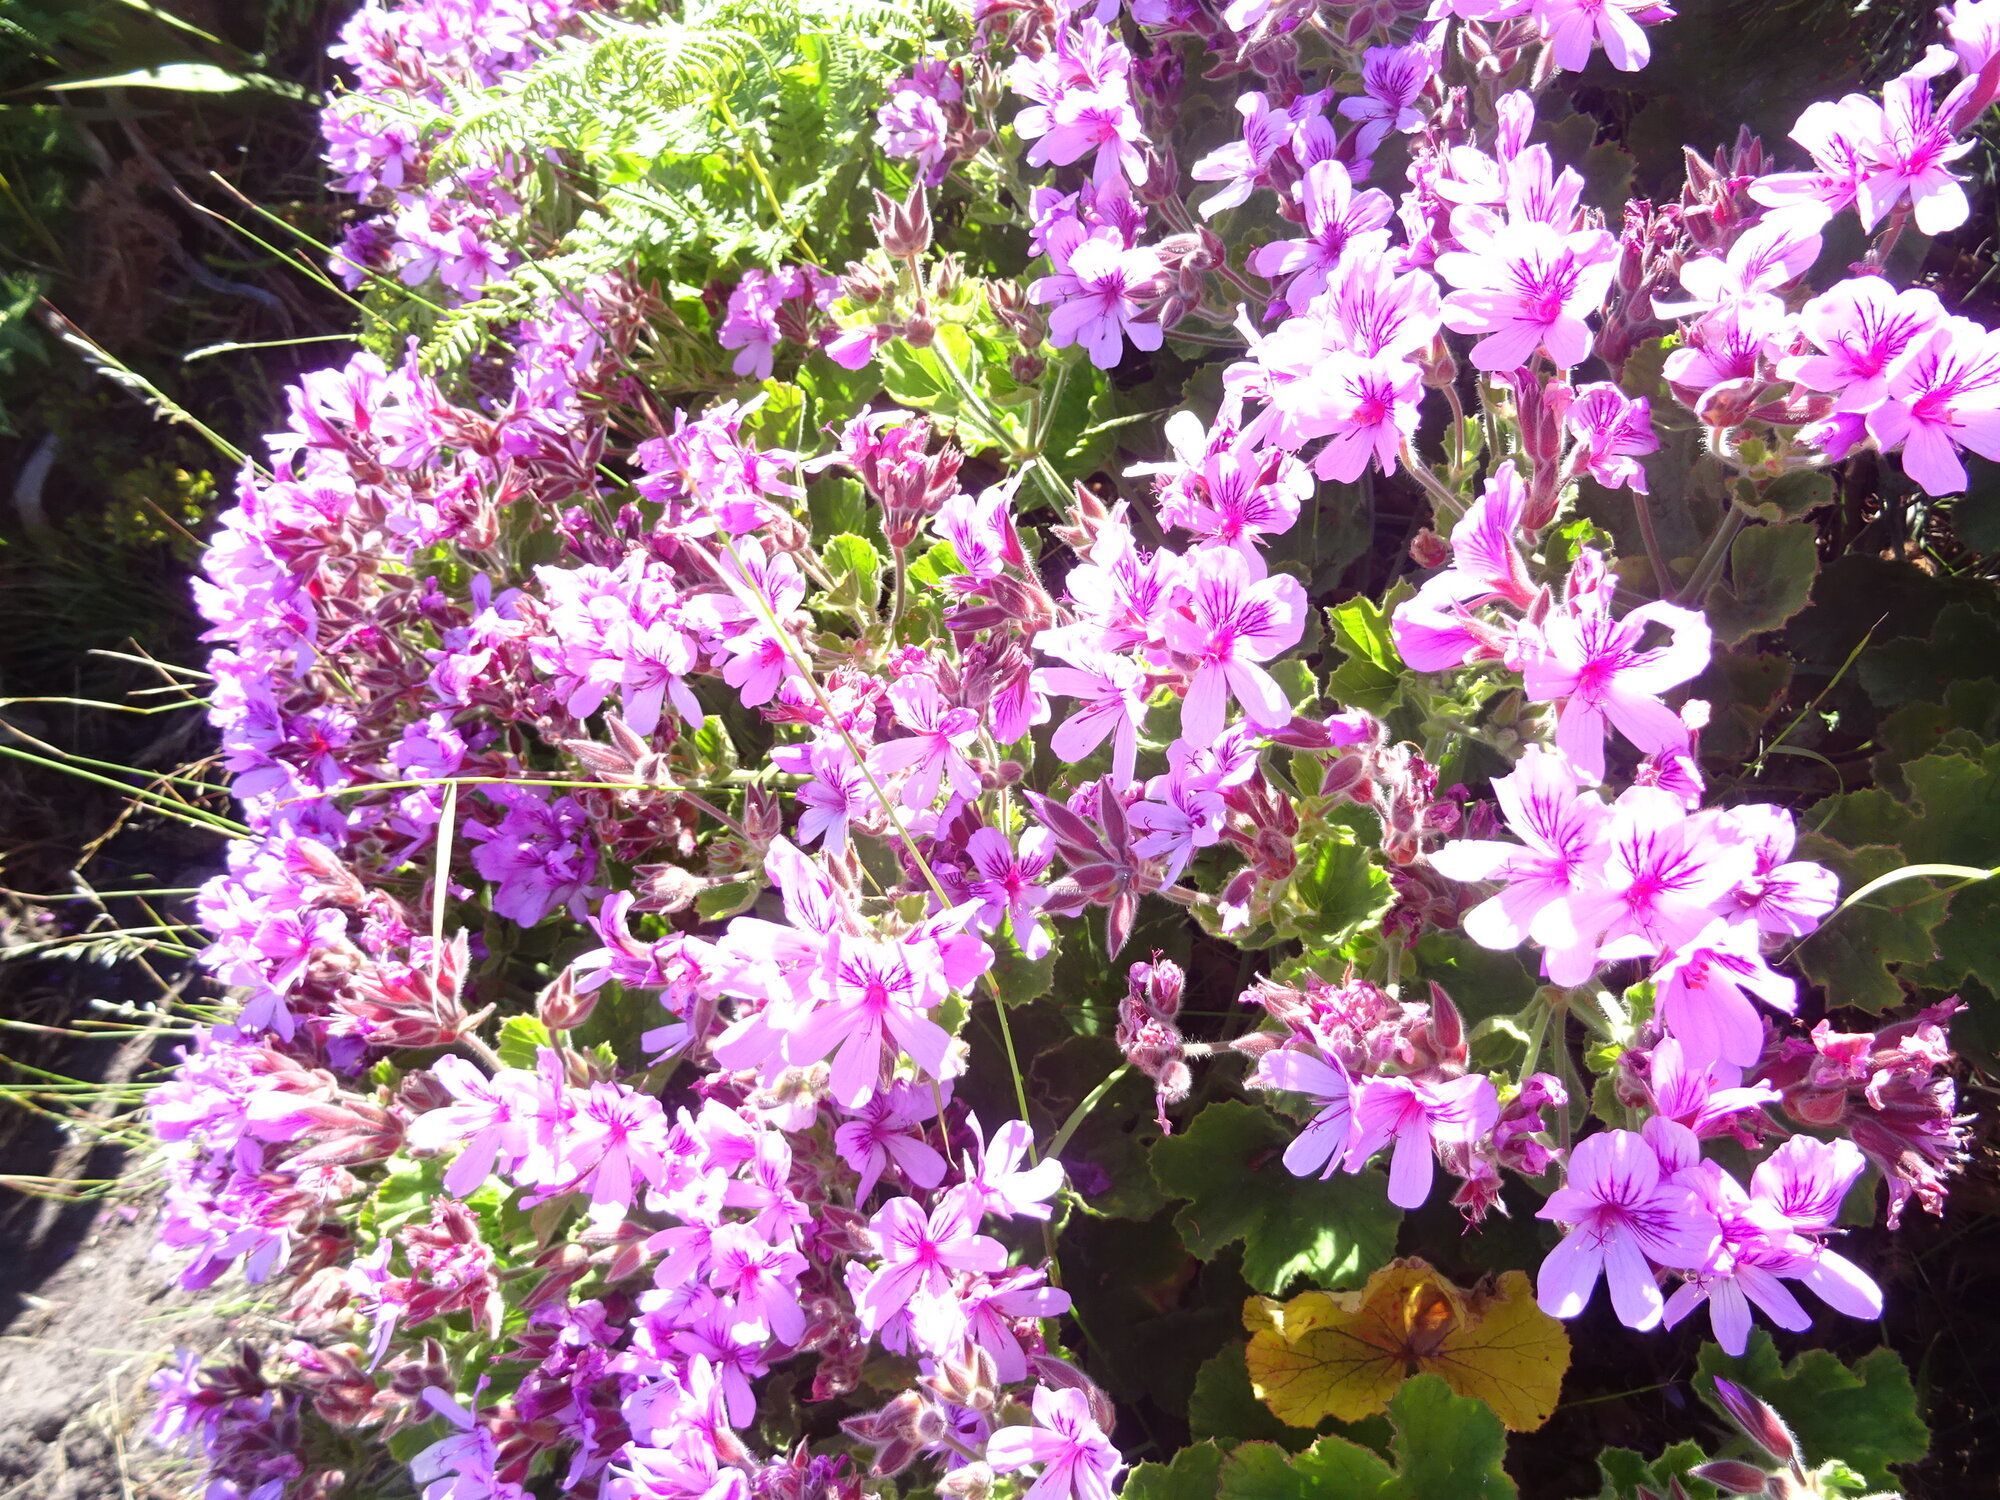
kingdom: Plantae
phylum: Tracheophyta
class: Magnoliopsida
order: Geraniales
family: Geraniaceae
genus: Pelargonium
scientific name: Pelargonium cucullatum
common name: Tree pelargonium
